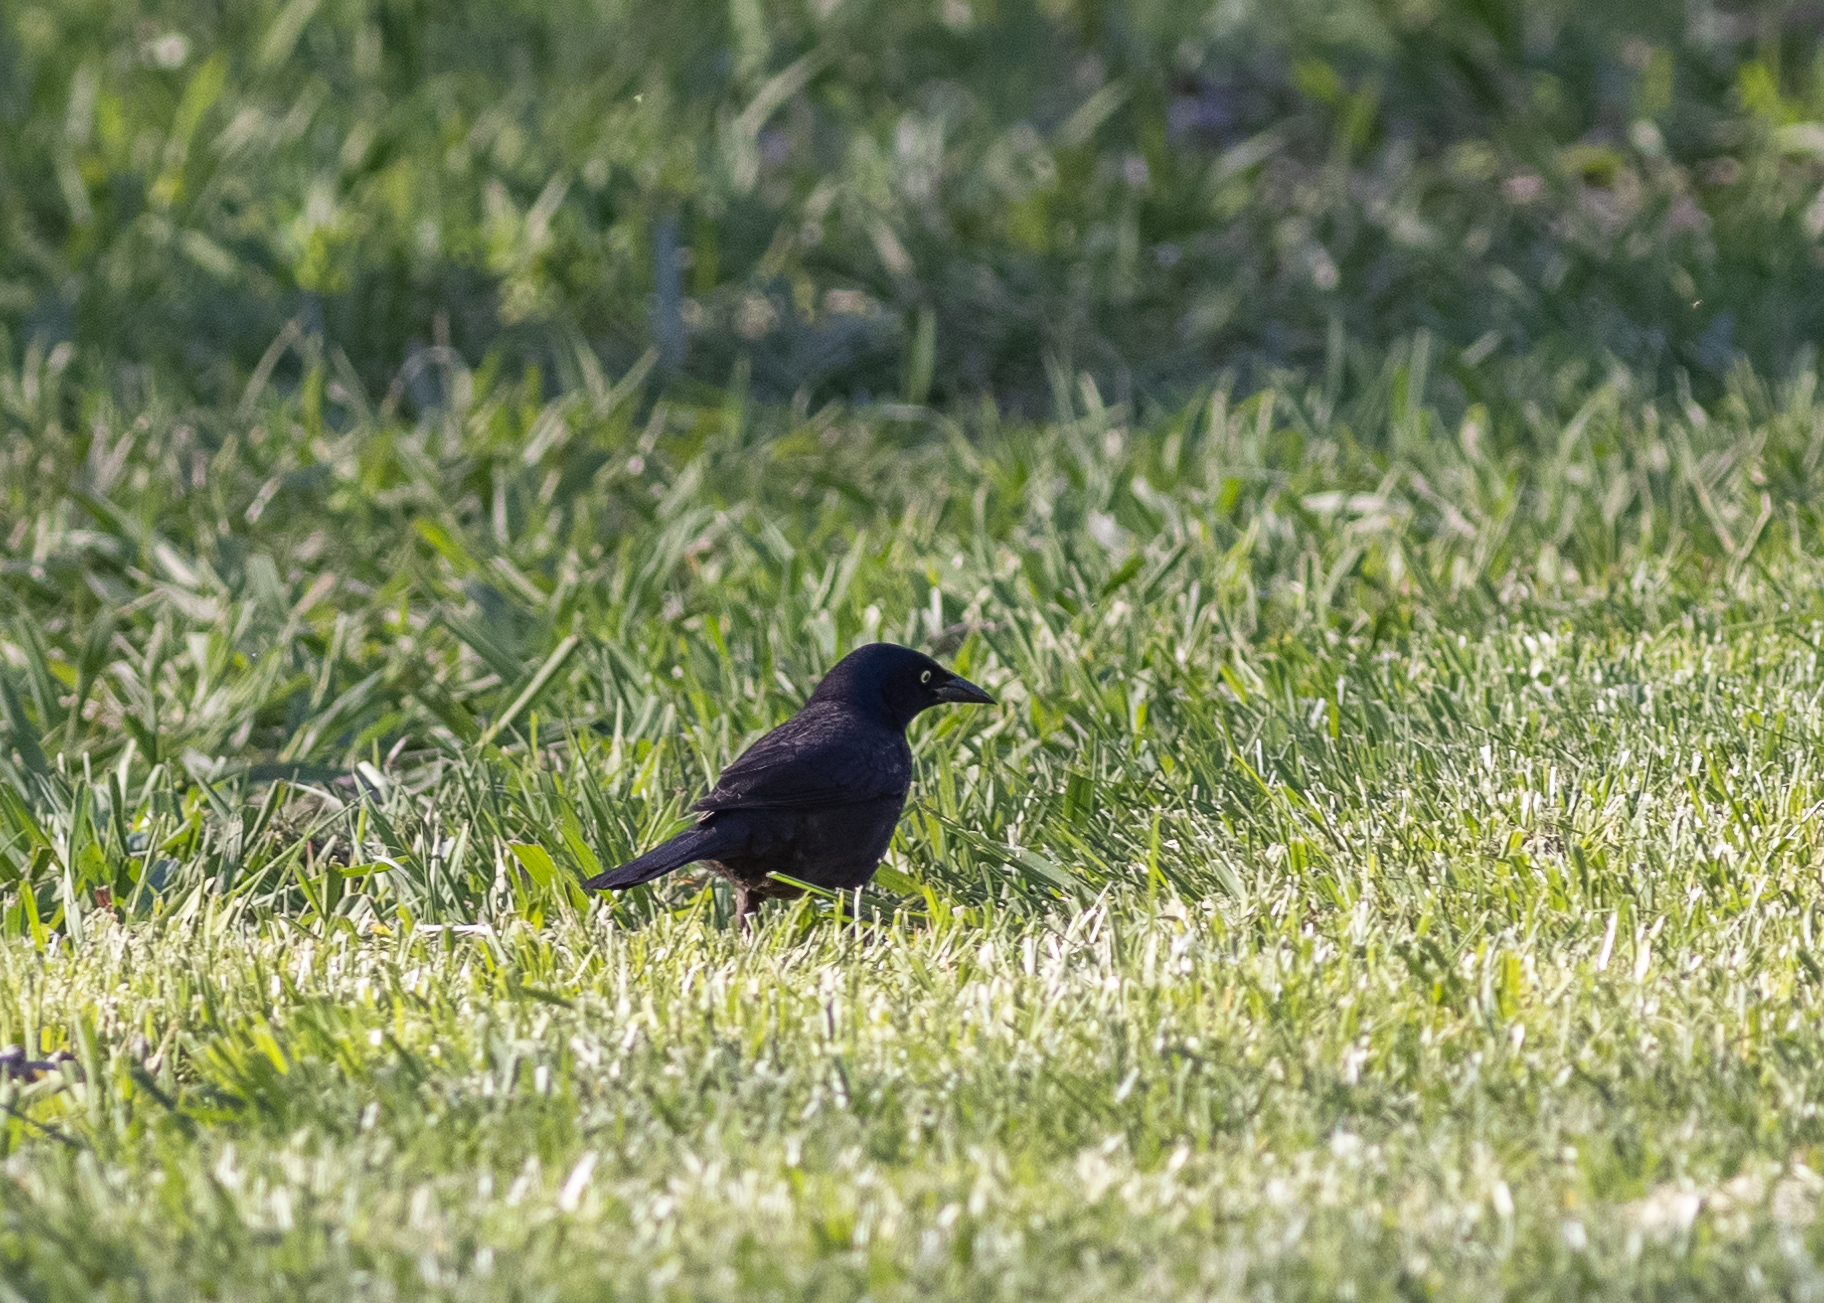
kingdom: Animalia
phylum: Chordata
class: Aves
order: Passeriformes
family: Icteridae
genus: Quiscalus
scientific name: Quiscalus quiscula
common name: Common grackle
